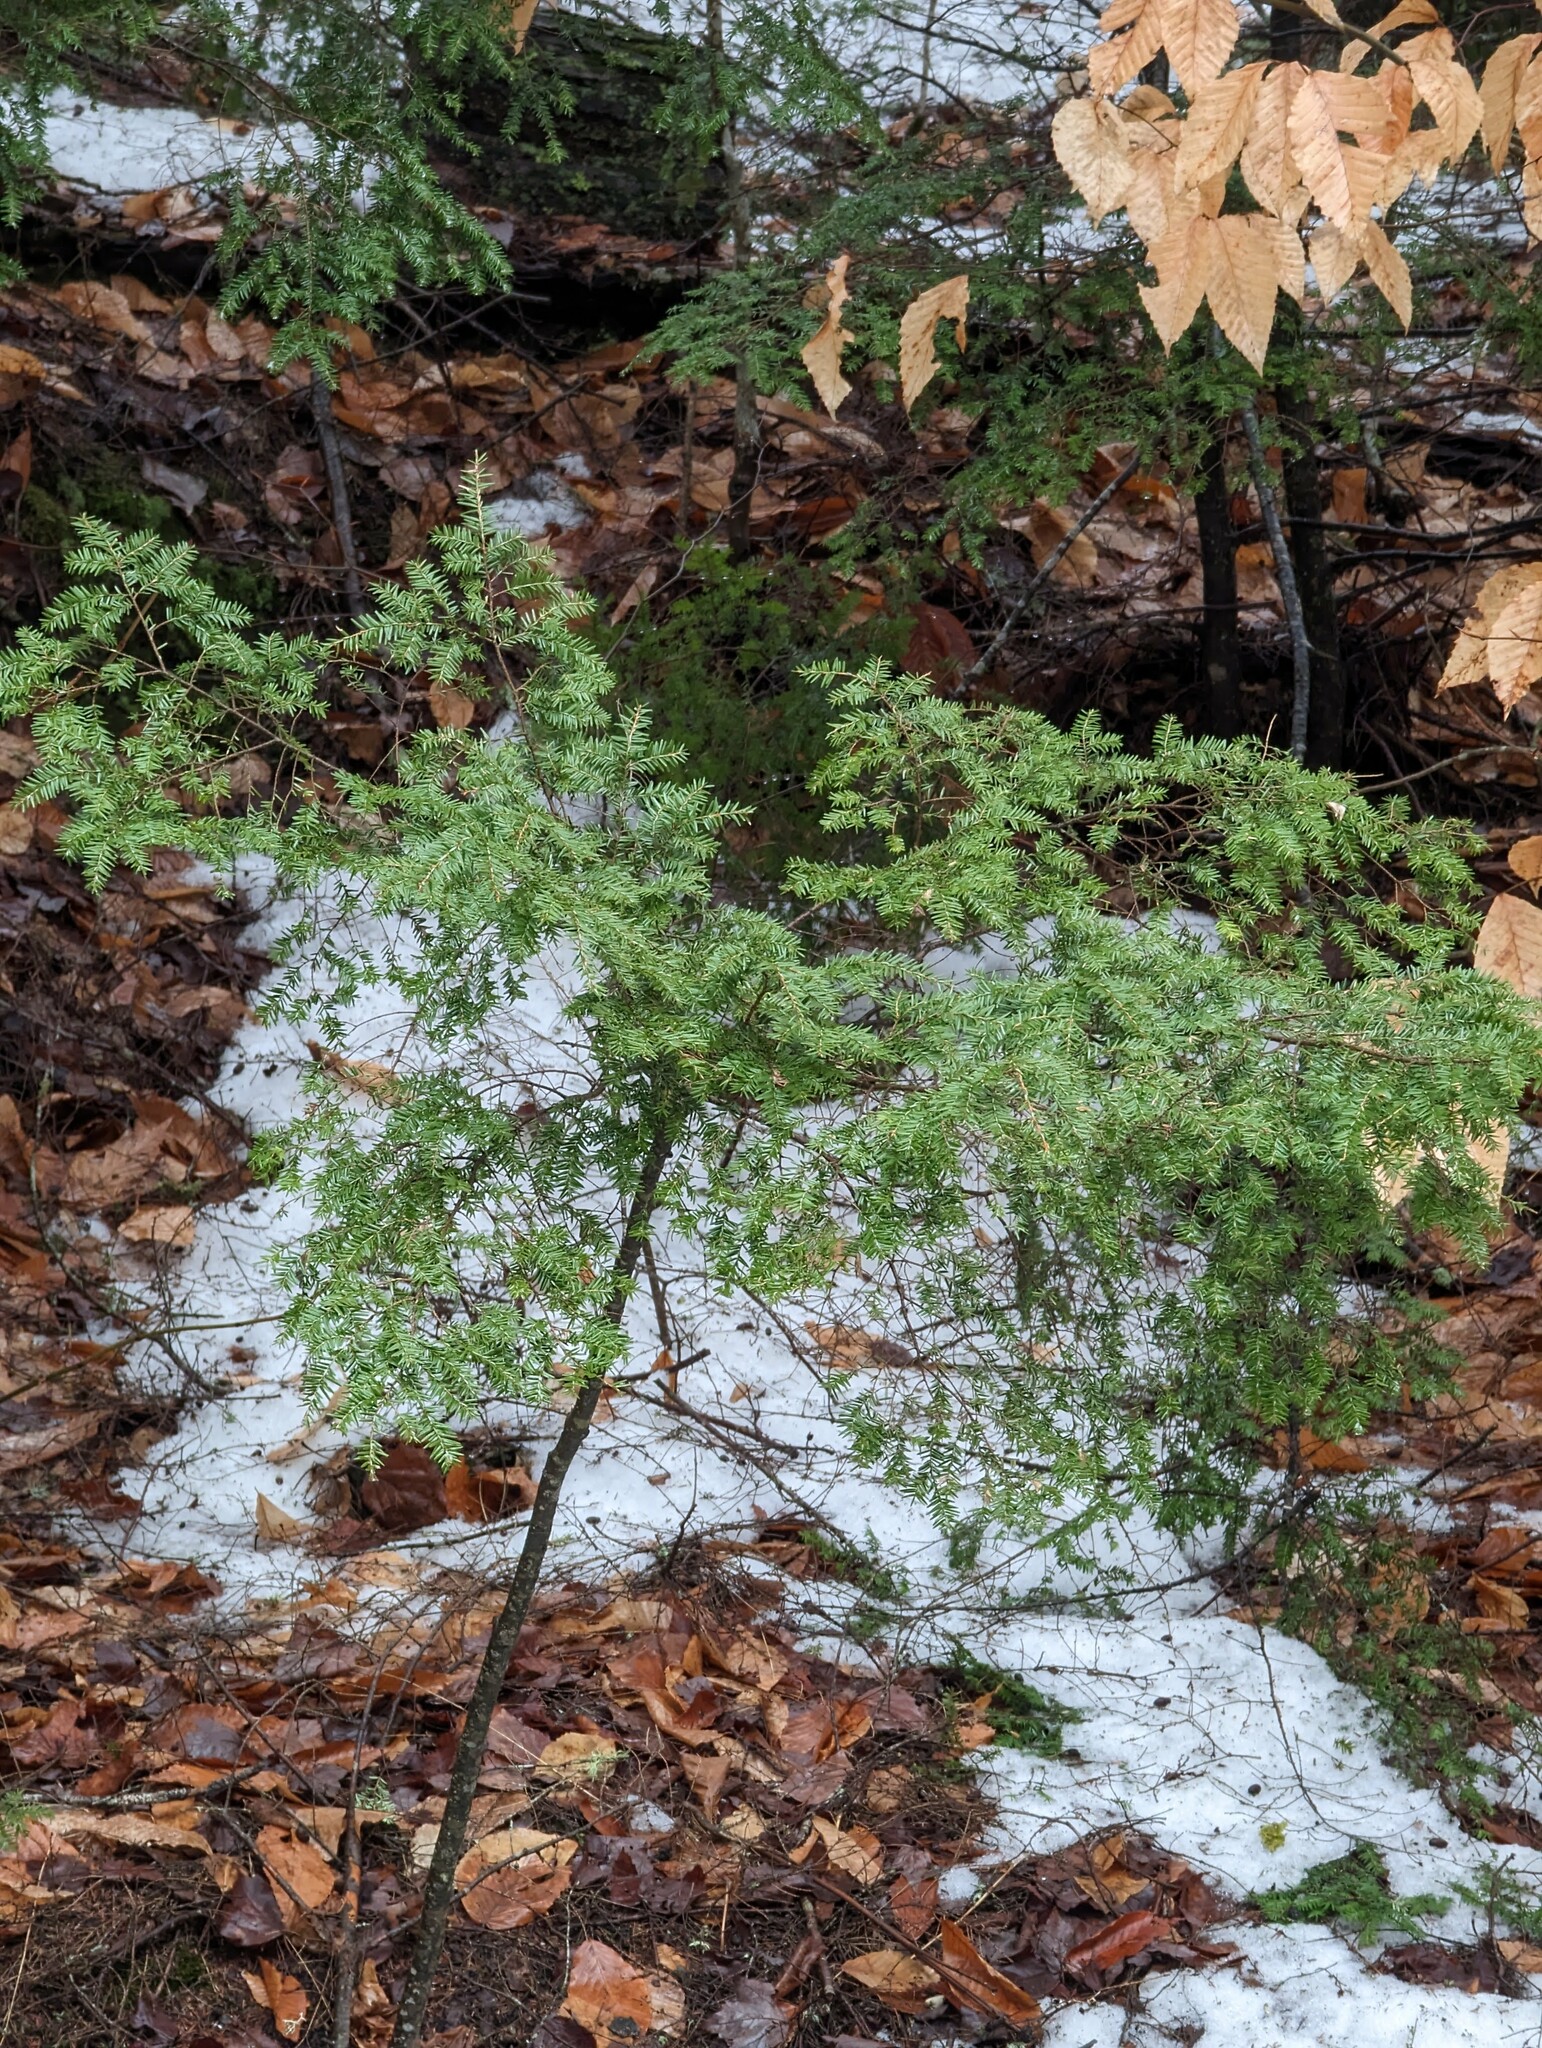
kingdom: Plantae
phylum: Tracheophyta
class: Pinopsida
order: Pinales
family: Pinaceae
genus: Tsuga
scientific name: Tsuga canadensis
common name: Eastern hemlock
